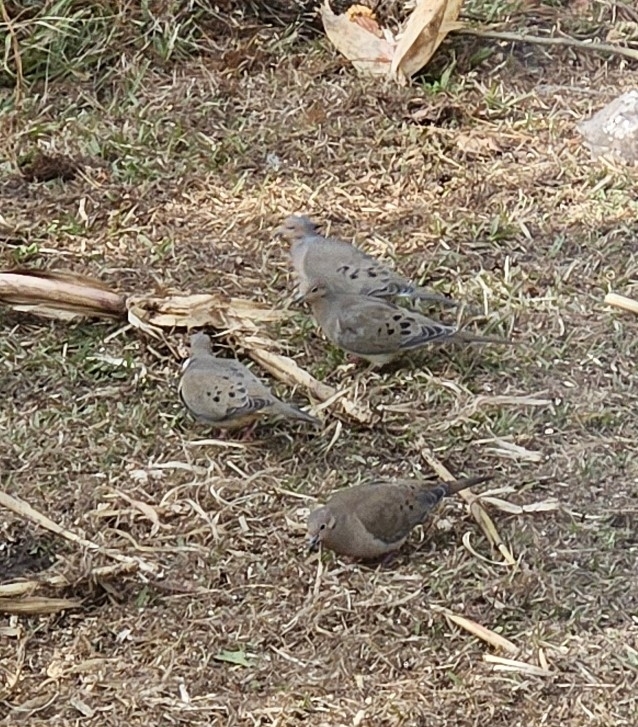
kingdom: Animalia
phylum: Chordata
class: Aves
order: Columbiformes
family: Columbidae
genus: Zenaida
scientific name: Zenaida macroura
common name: Mourning dove
